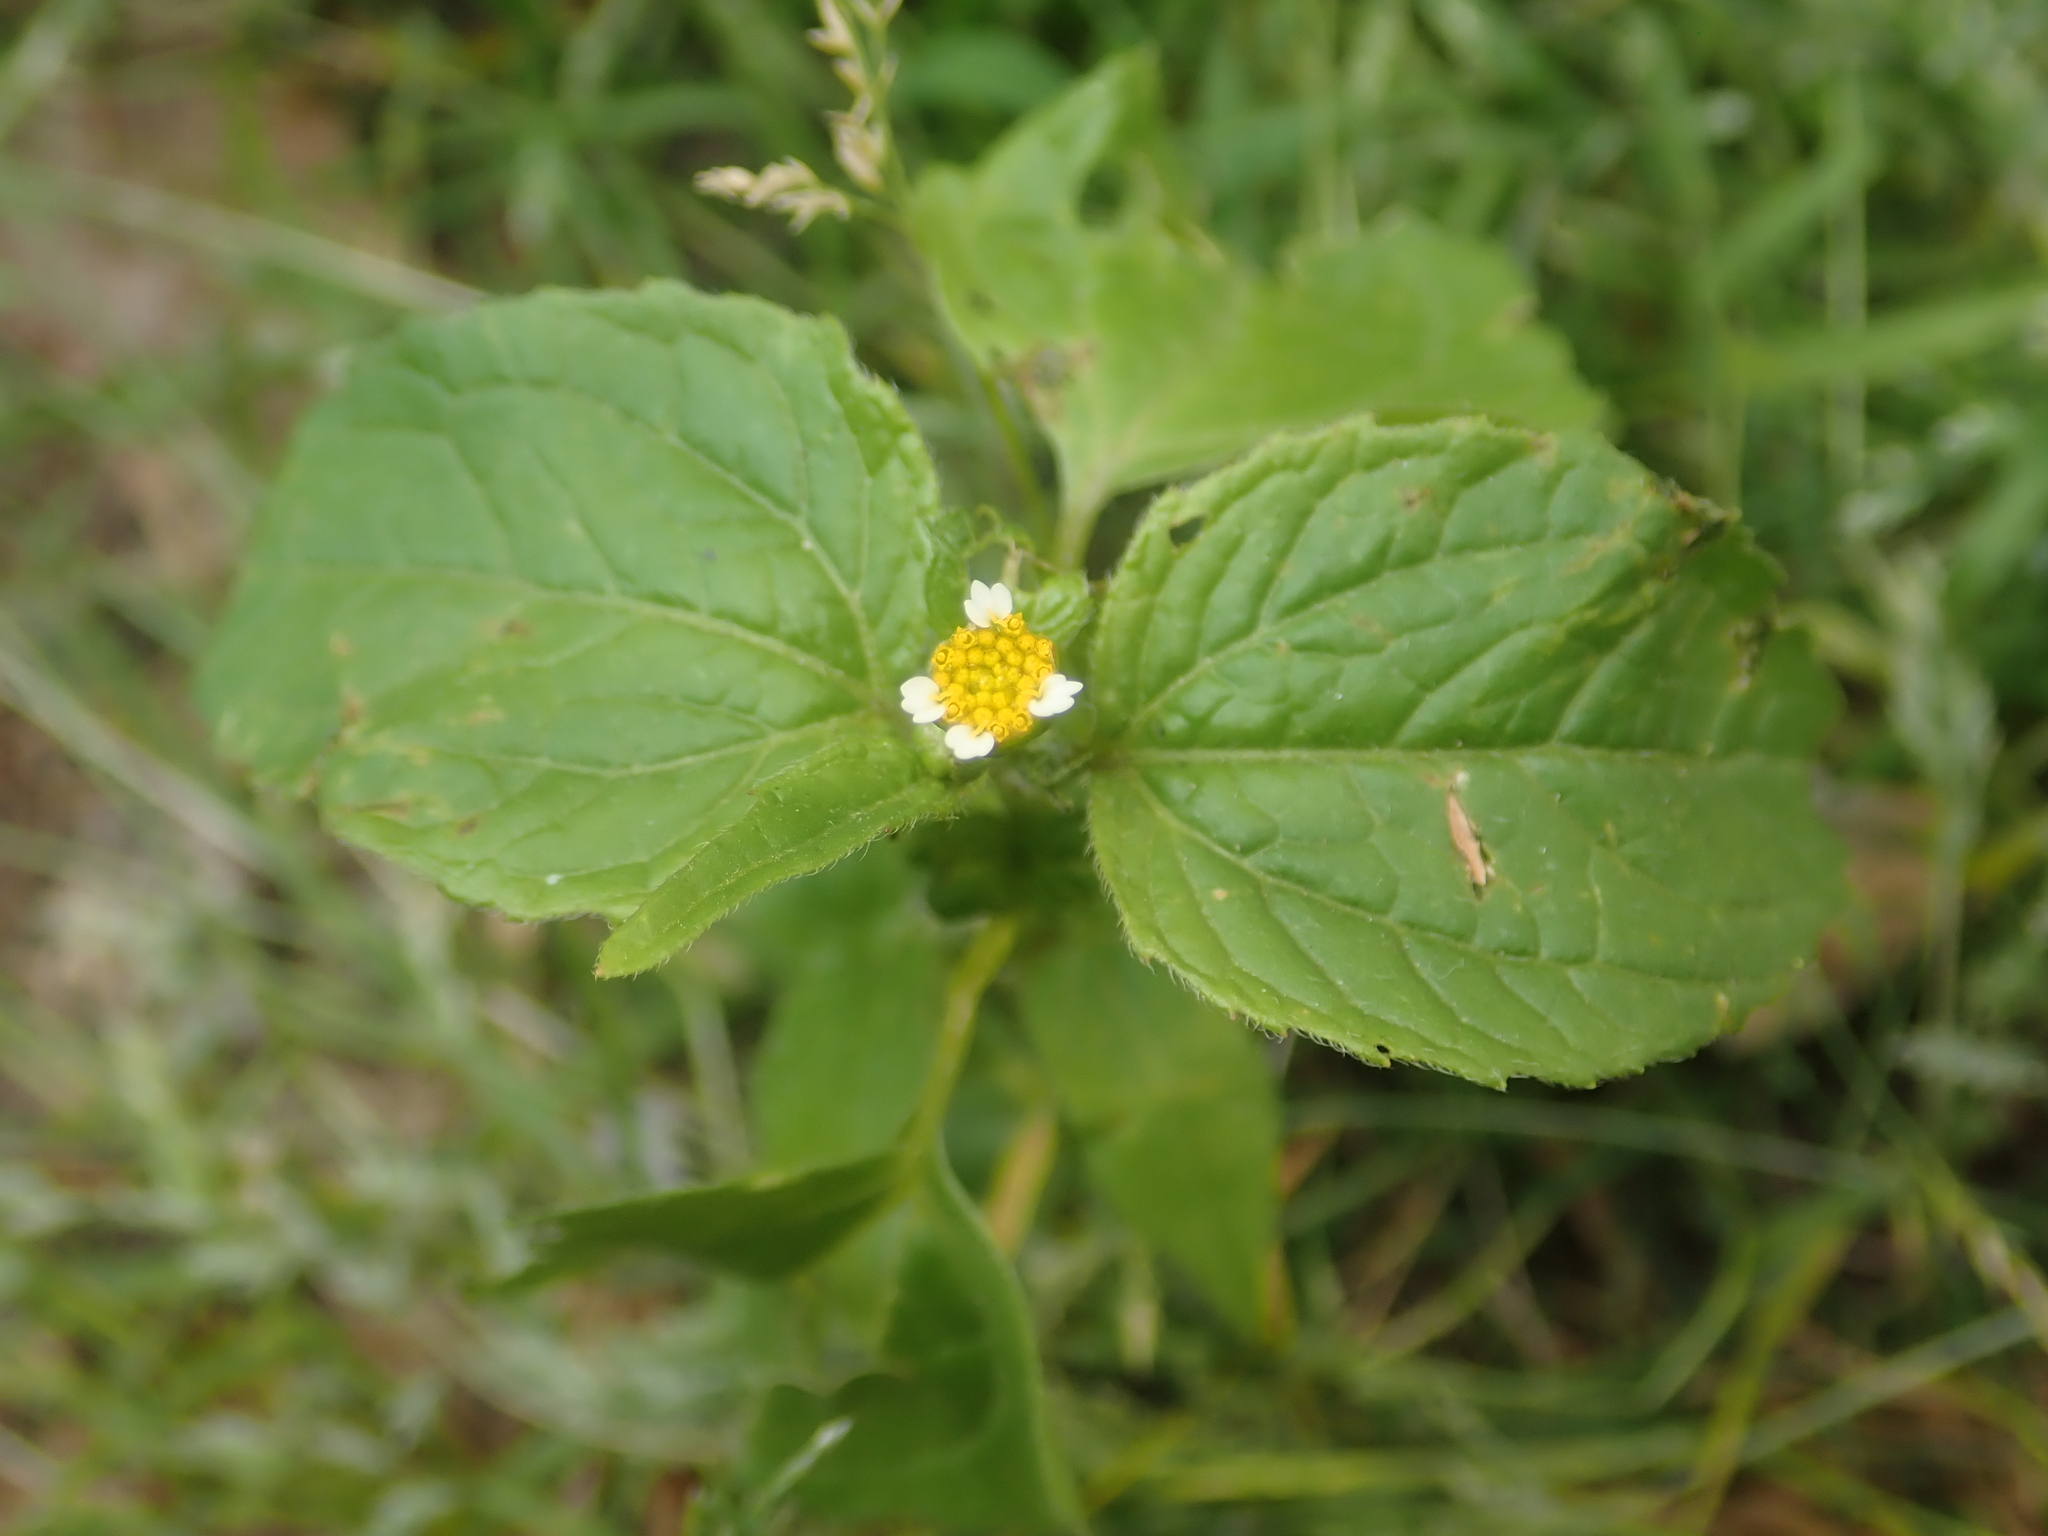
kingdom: Plantae
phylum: Tracheophyta
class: Magnoliopsida
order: Asterales
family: Asteraceae
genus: Galinsoga
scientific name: Galinsoga parviflora
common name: Gallant soldier
